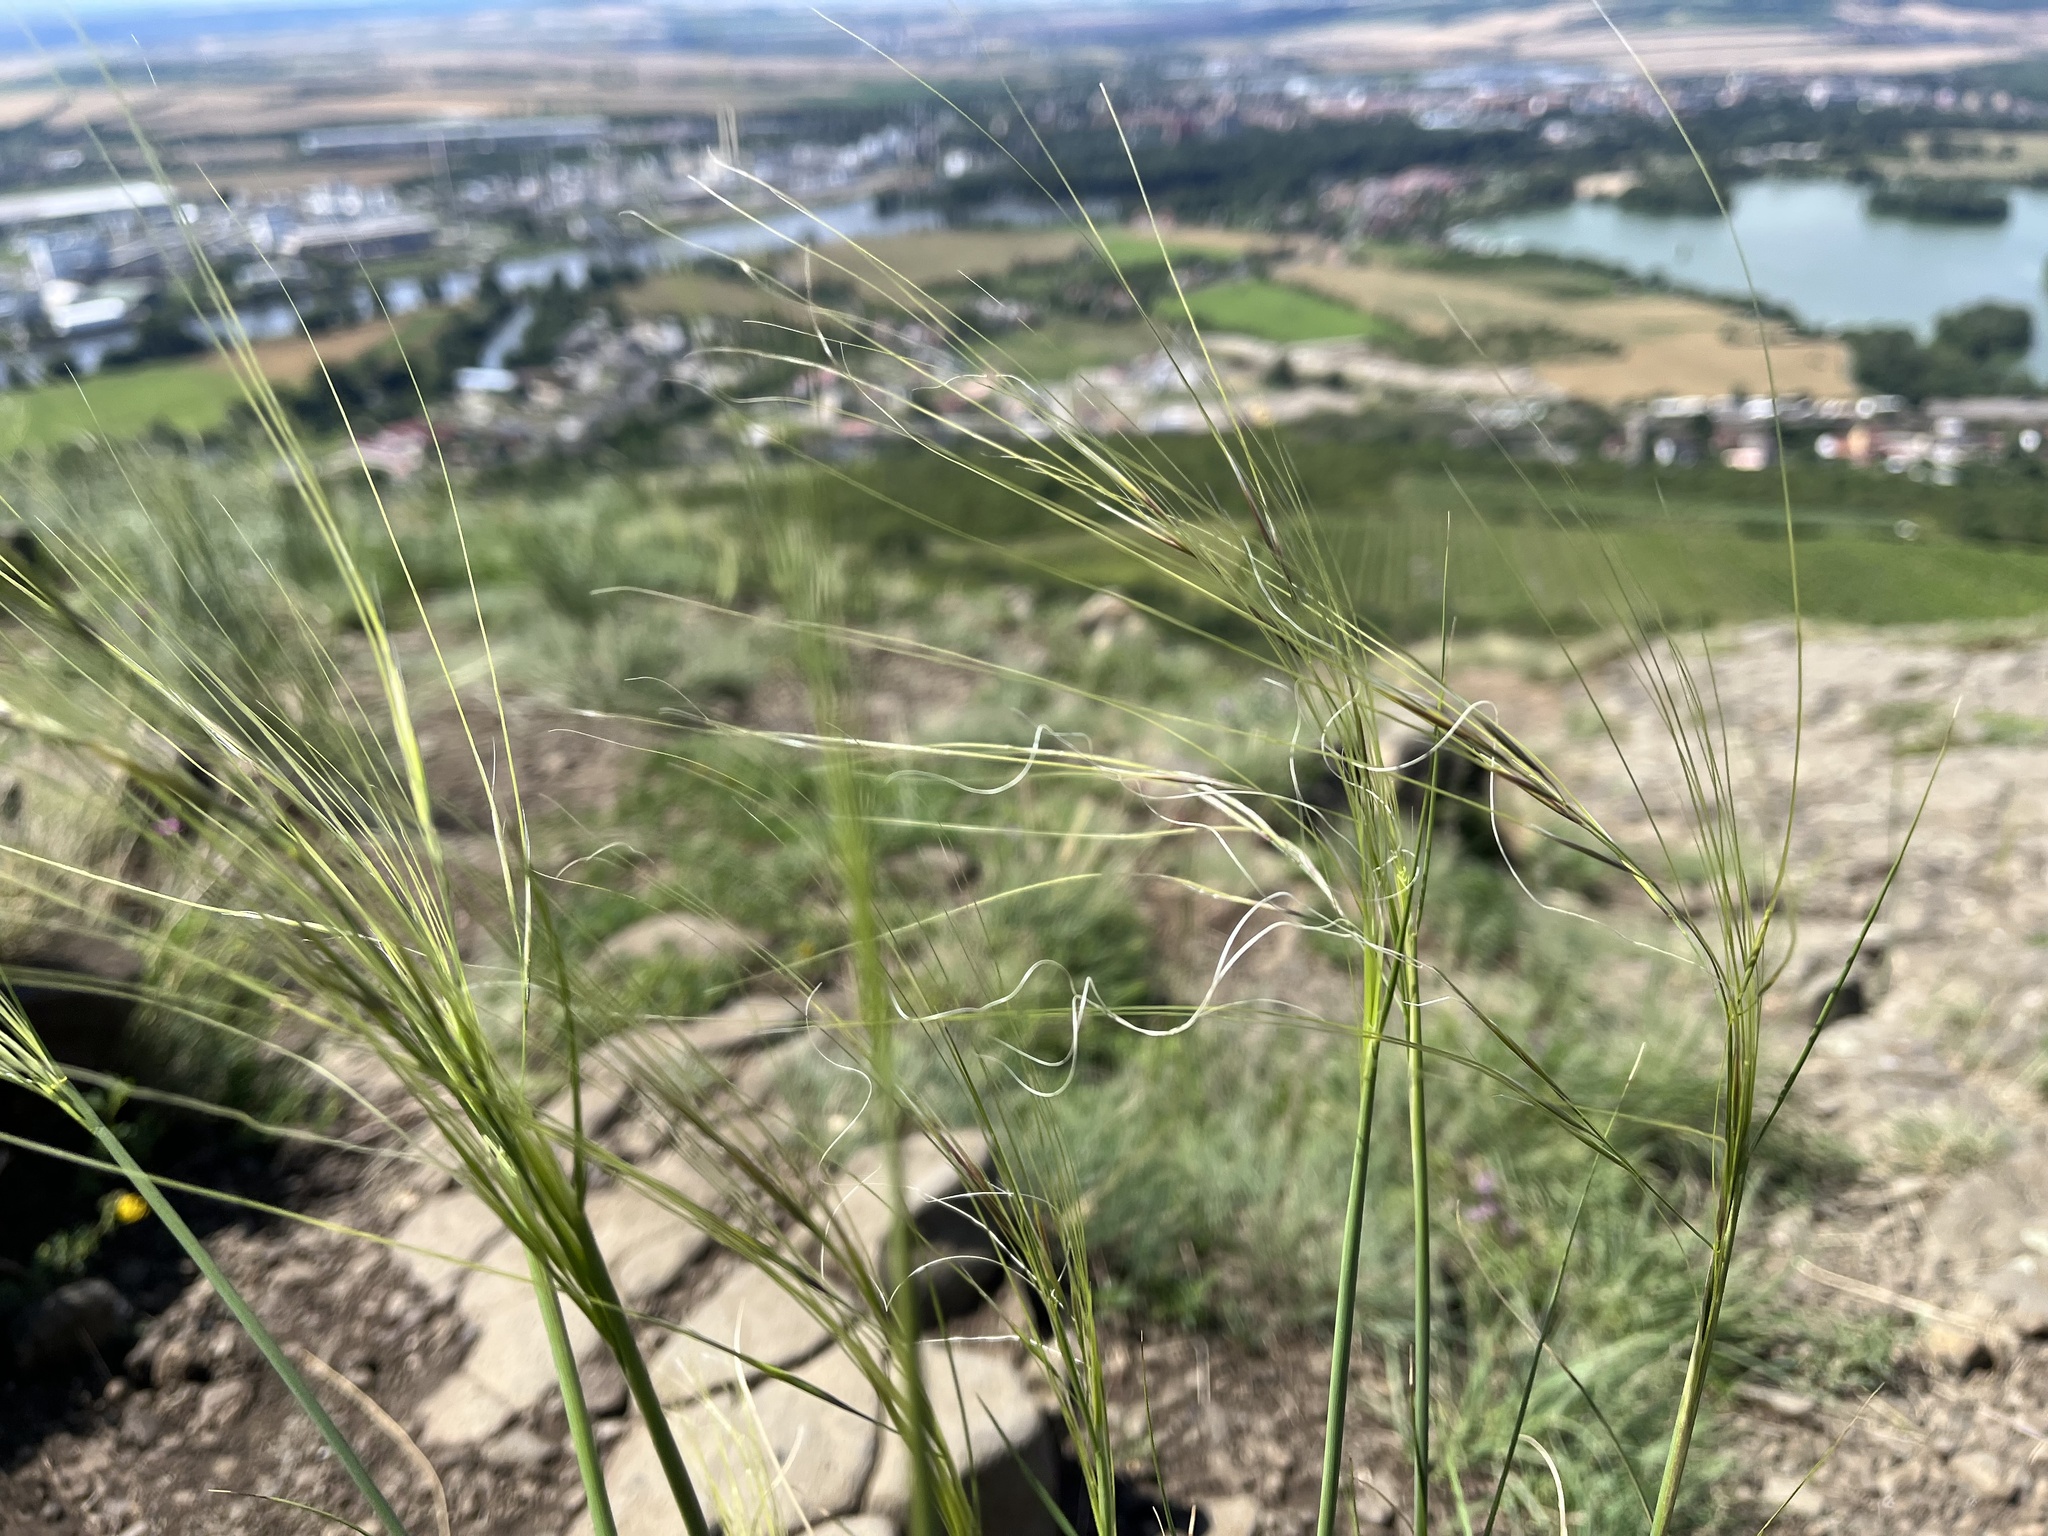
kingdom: Plantae
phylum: Tracheophyta
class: Liliopsida
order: Poales
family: Poaceae
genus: Stipa
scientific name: Stipa capillata
